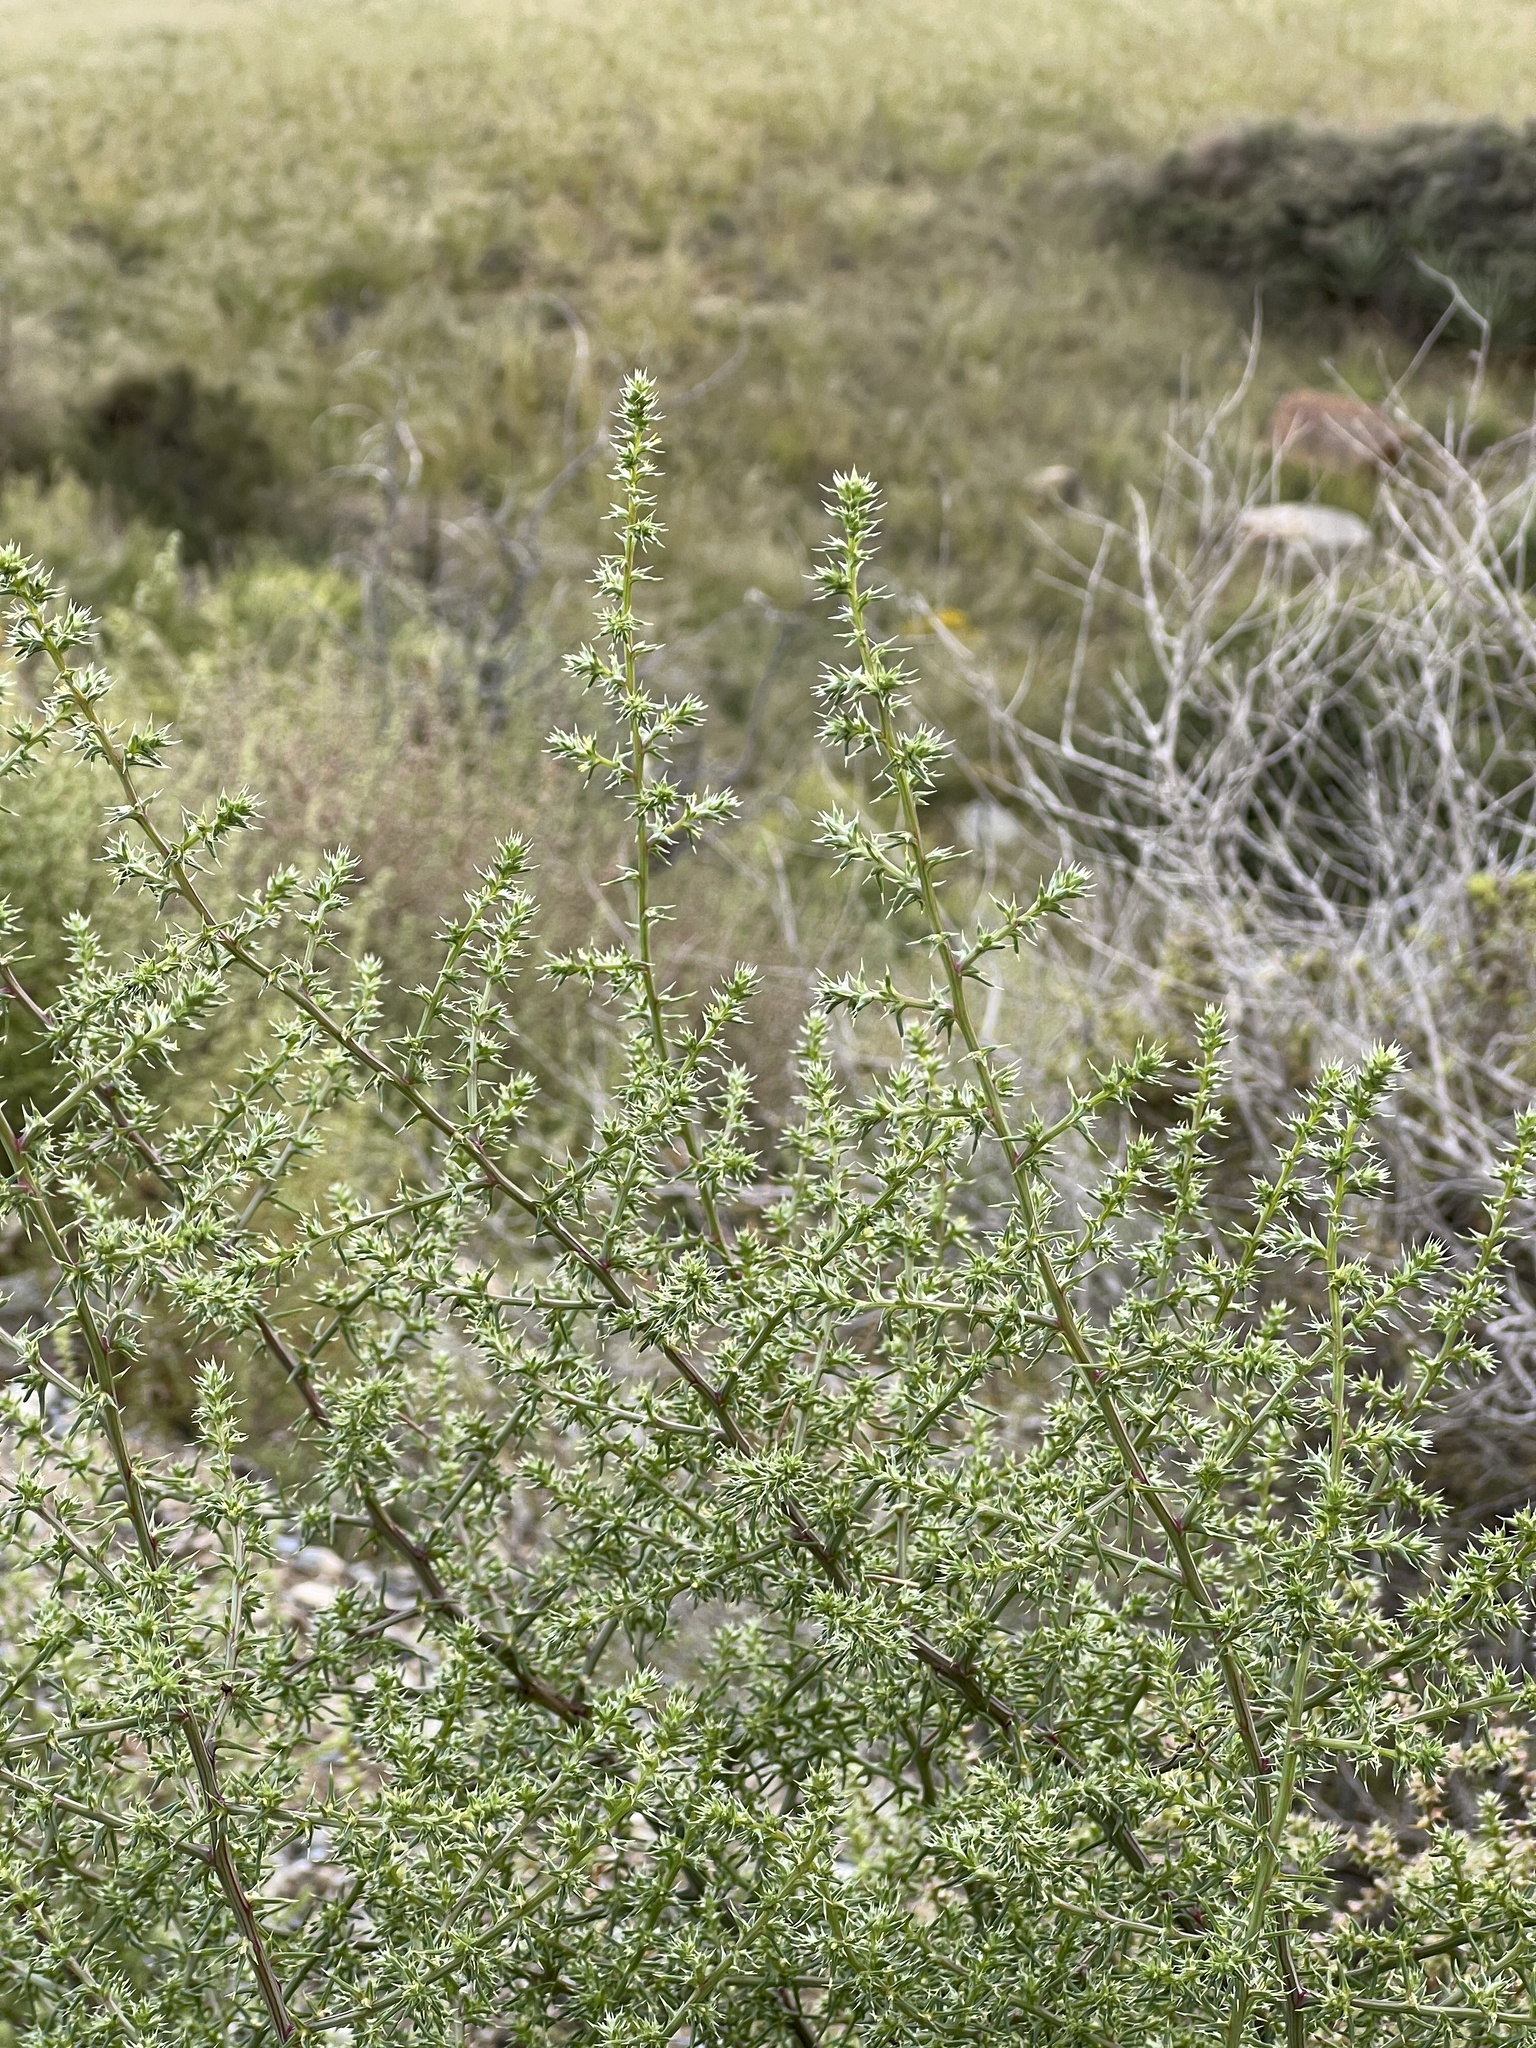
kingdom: Plantae
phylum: Tracheophyta
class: Magnoliopsida
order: Caryophyllales
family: Amaranthaceae
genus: Salsola
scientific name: Salsola tragus
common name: Prickly russian thistle
